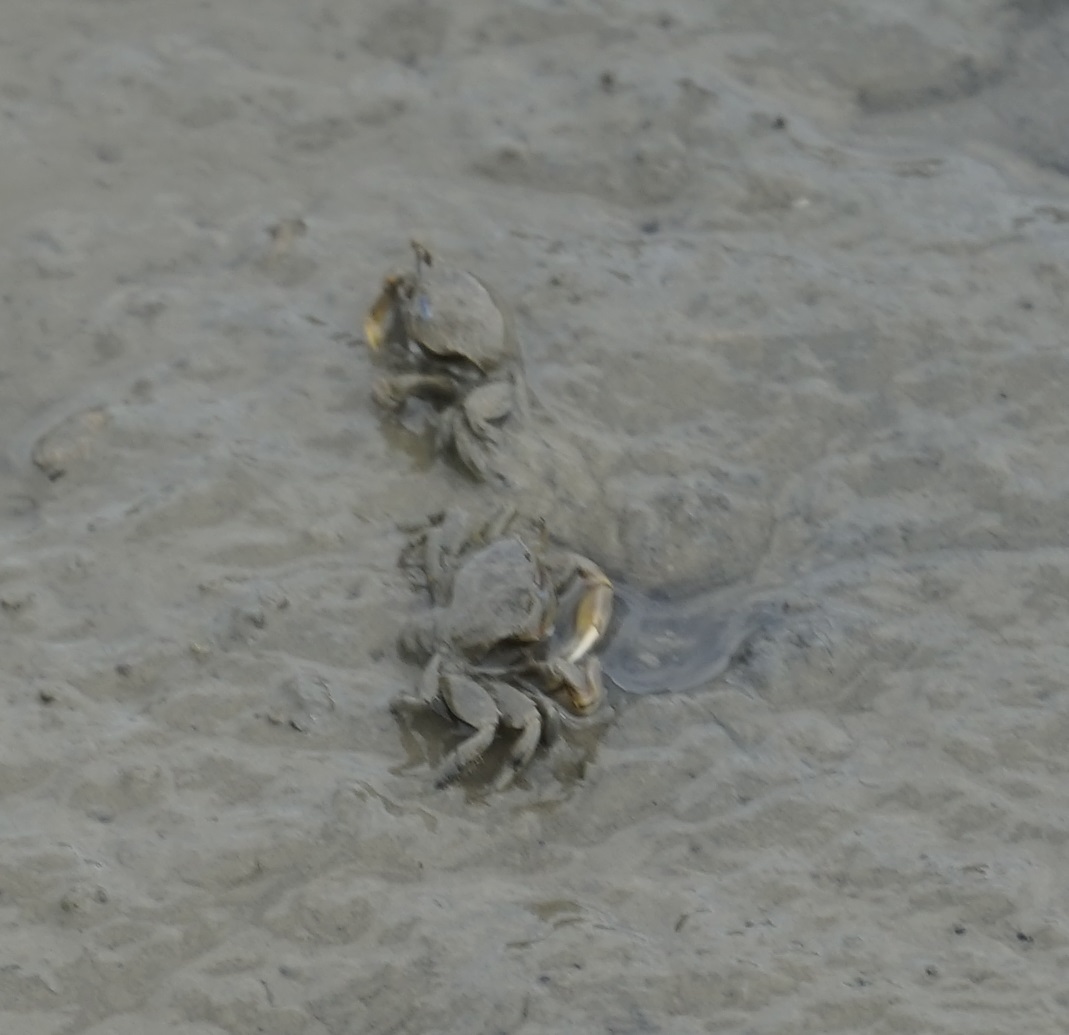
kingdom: Animalia
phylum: Arthropoda
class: Malacostraca
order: Decapoda
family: Macrophthalmidae
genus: Macrophthalmus
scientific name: Macrophthalmus banzai
